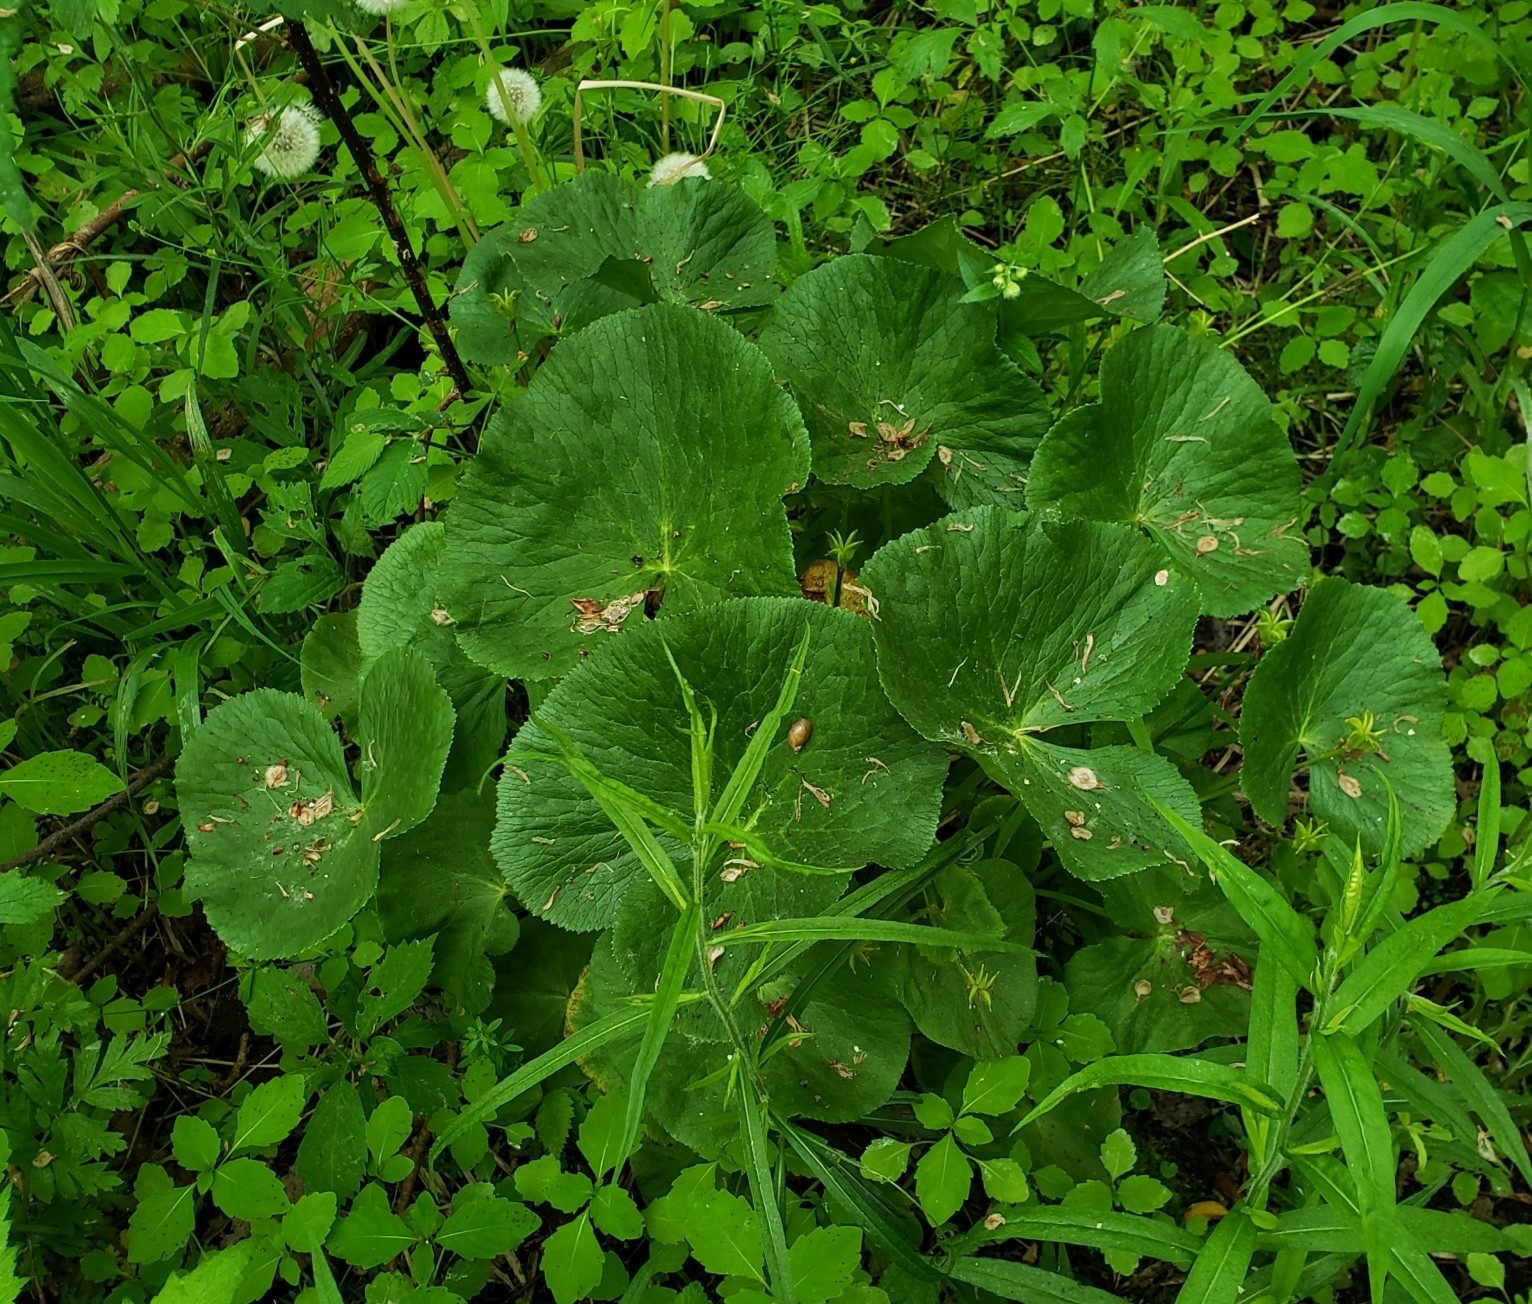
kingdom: Plantae
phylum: Tracheophyta
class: Magnoliopsida
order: Ranunculales
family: Ranunculaceae
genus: Caltha
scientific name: Caltha palustris
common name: Marsh marigold
